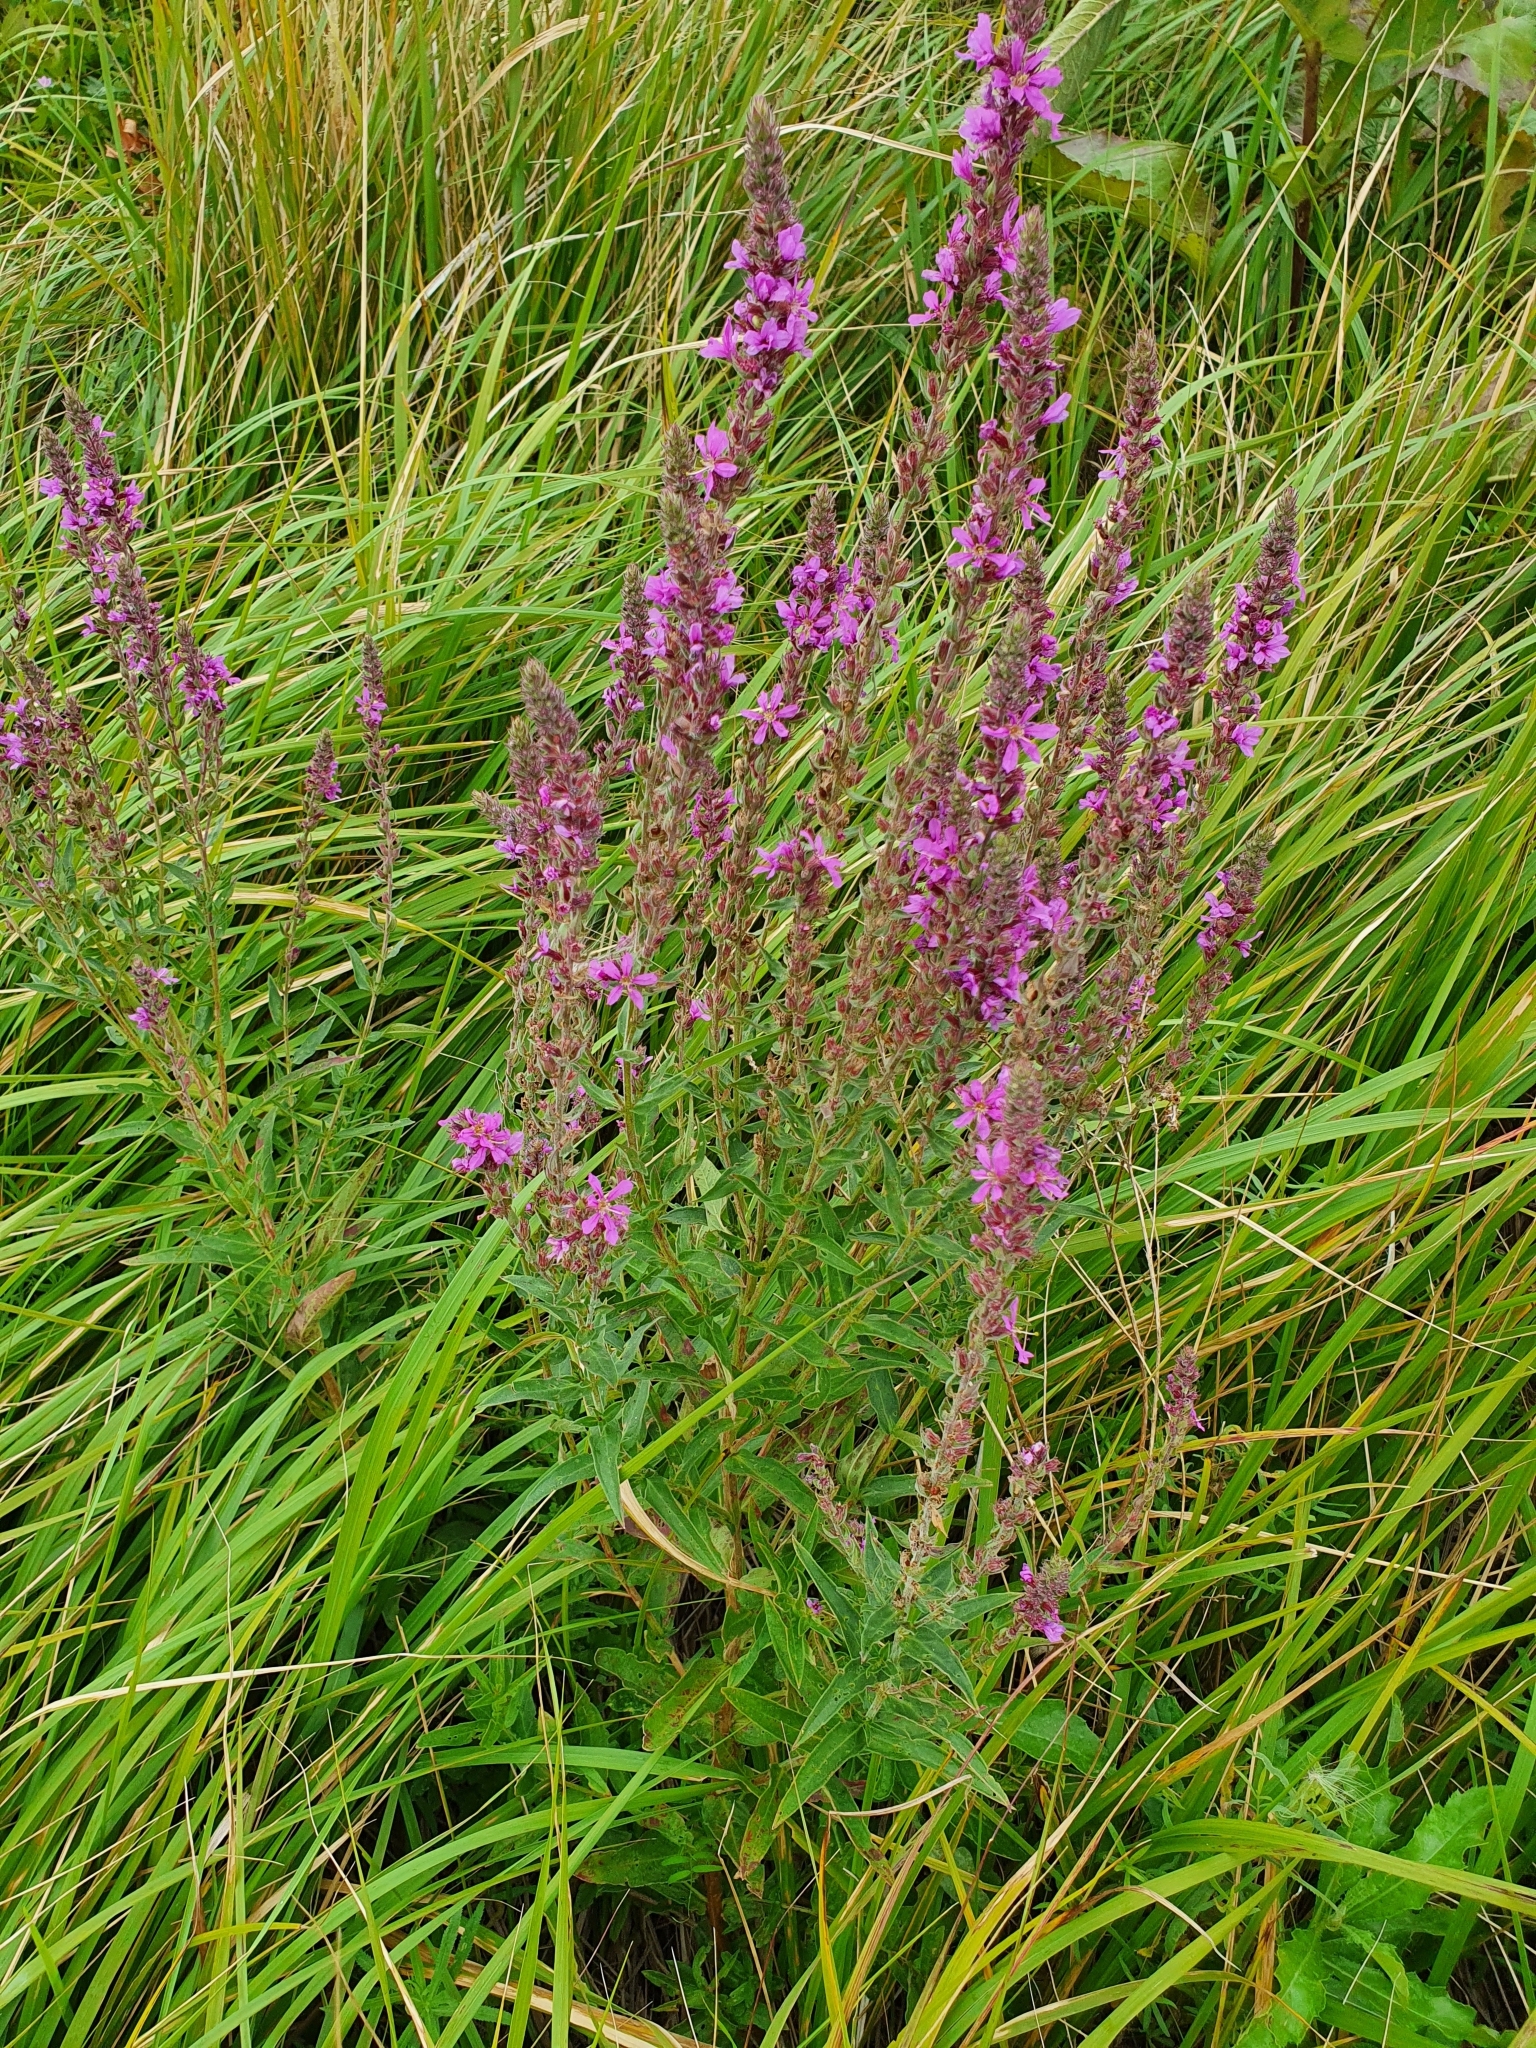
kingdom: Plantae
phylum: Tracheophyta
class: Magnoliopsida
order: Myrtales
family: Lythraceae
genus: Lythrum
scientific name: Lythrum salicaria
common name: Purple loosestrife
